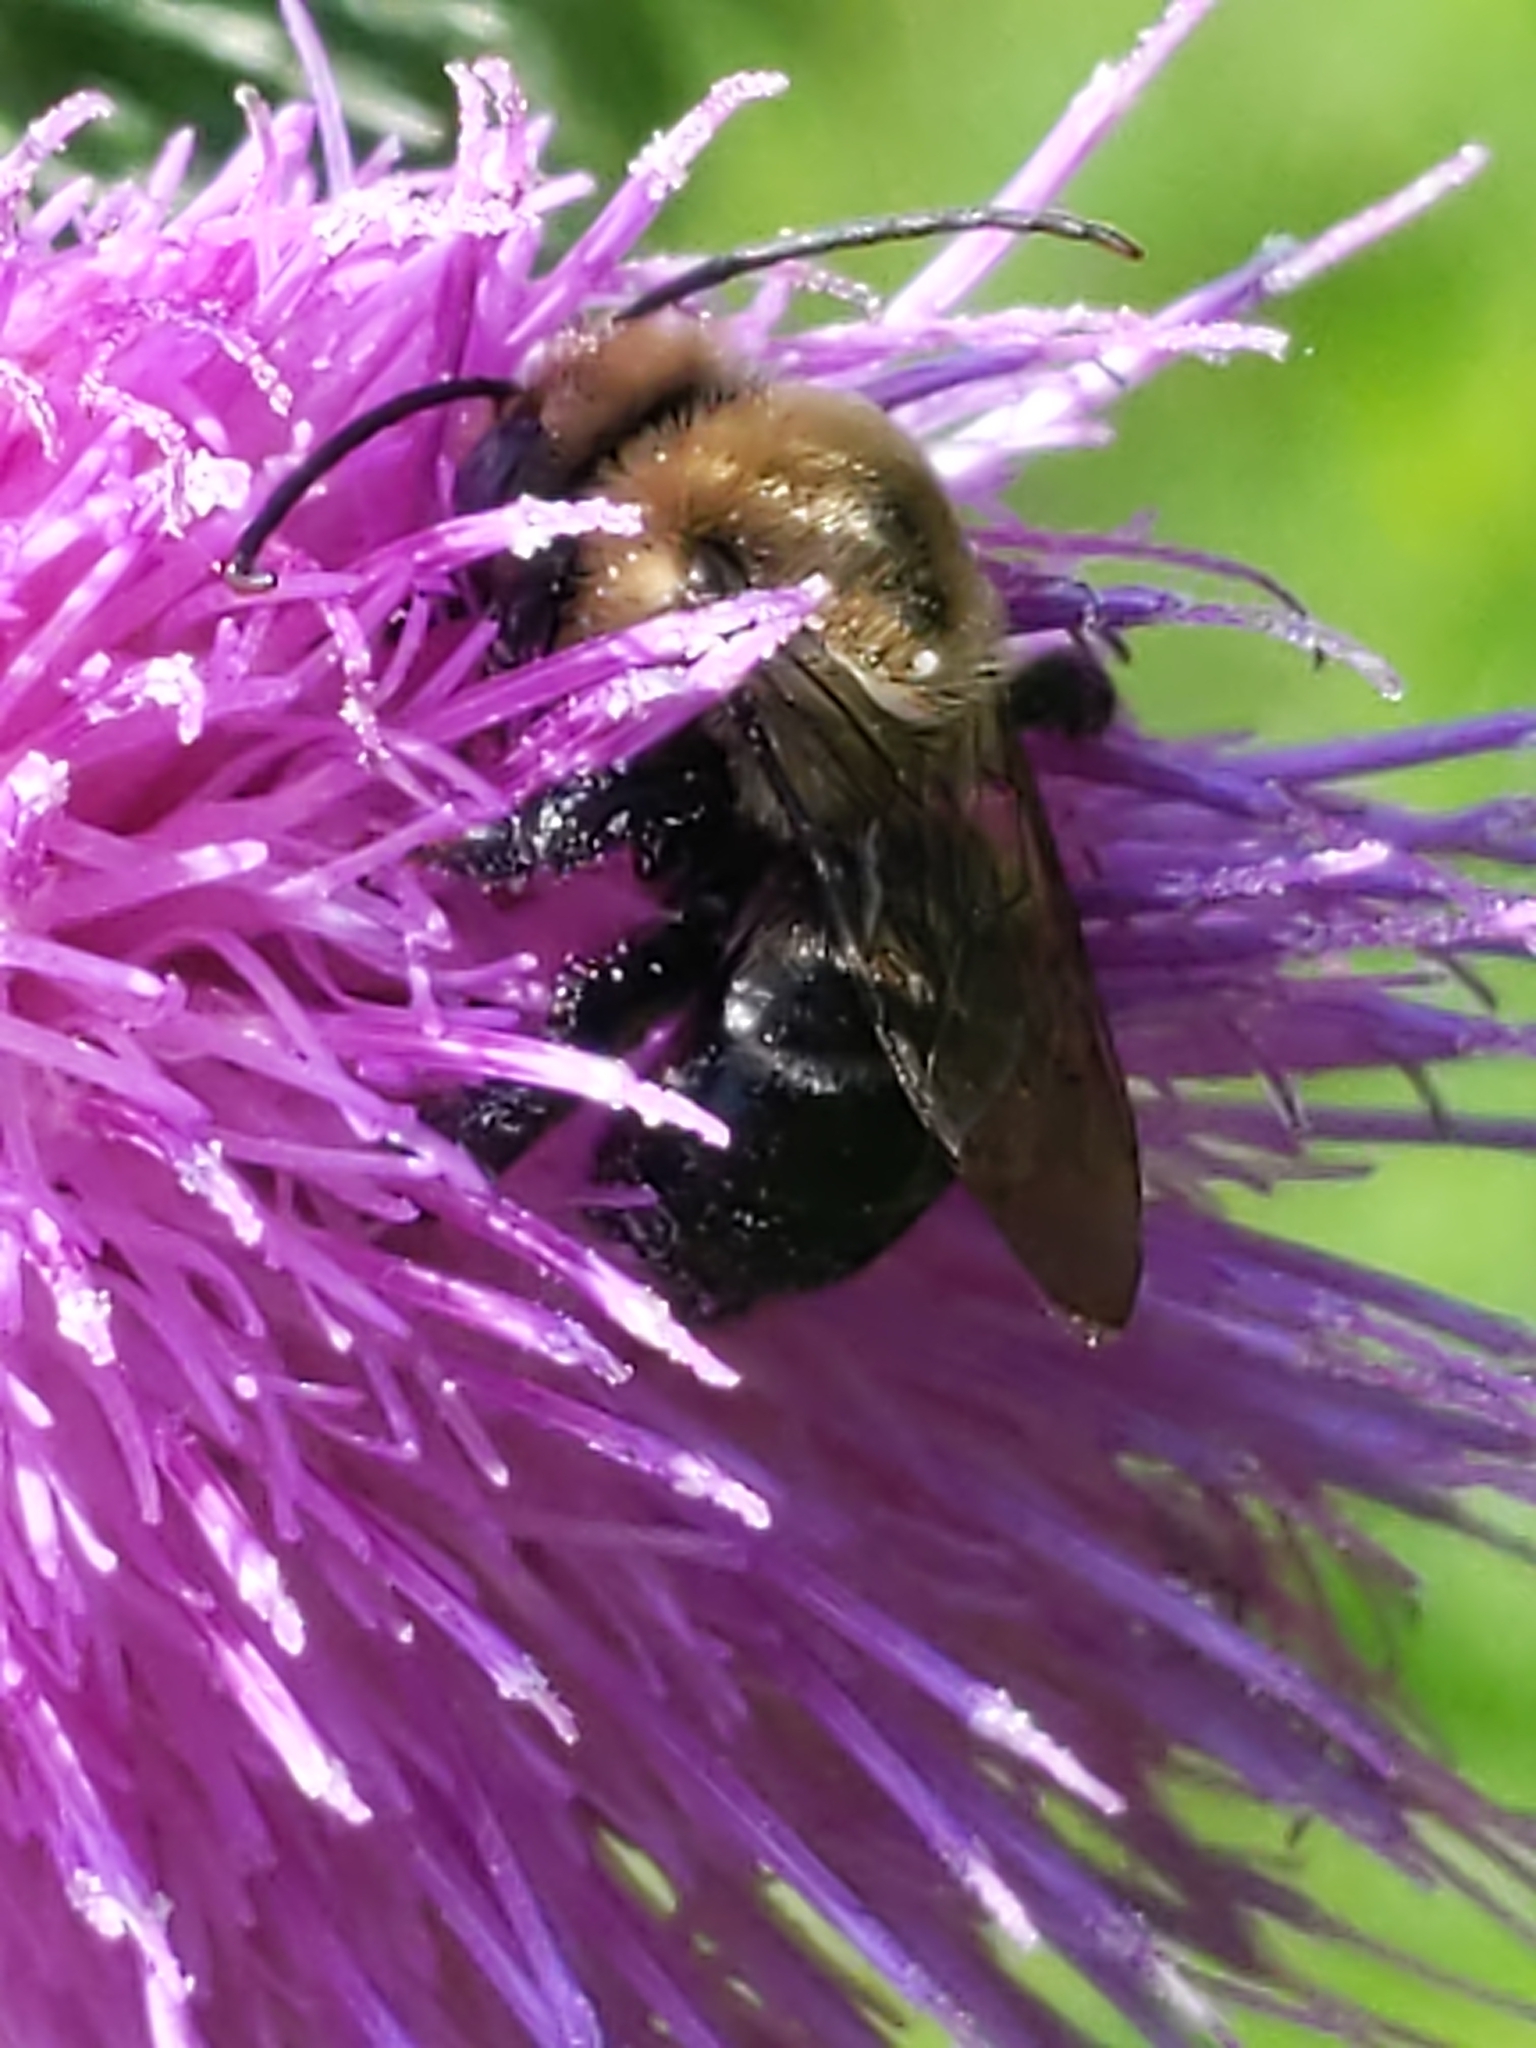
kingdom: Animalia
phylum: Arthropoda
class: Insecta
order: Hymenoptera
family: Apidae
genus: Melissodes
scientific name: Melissodes desponsus
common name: Thistle long-horned bee
